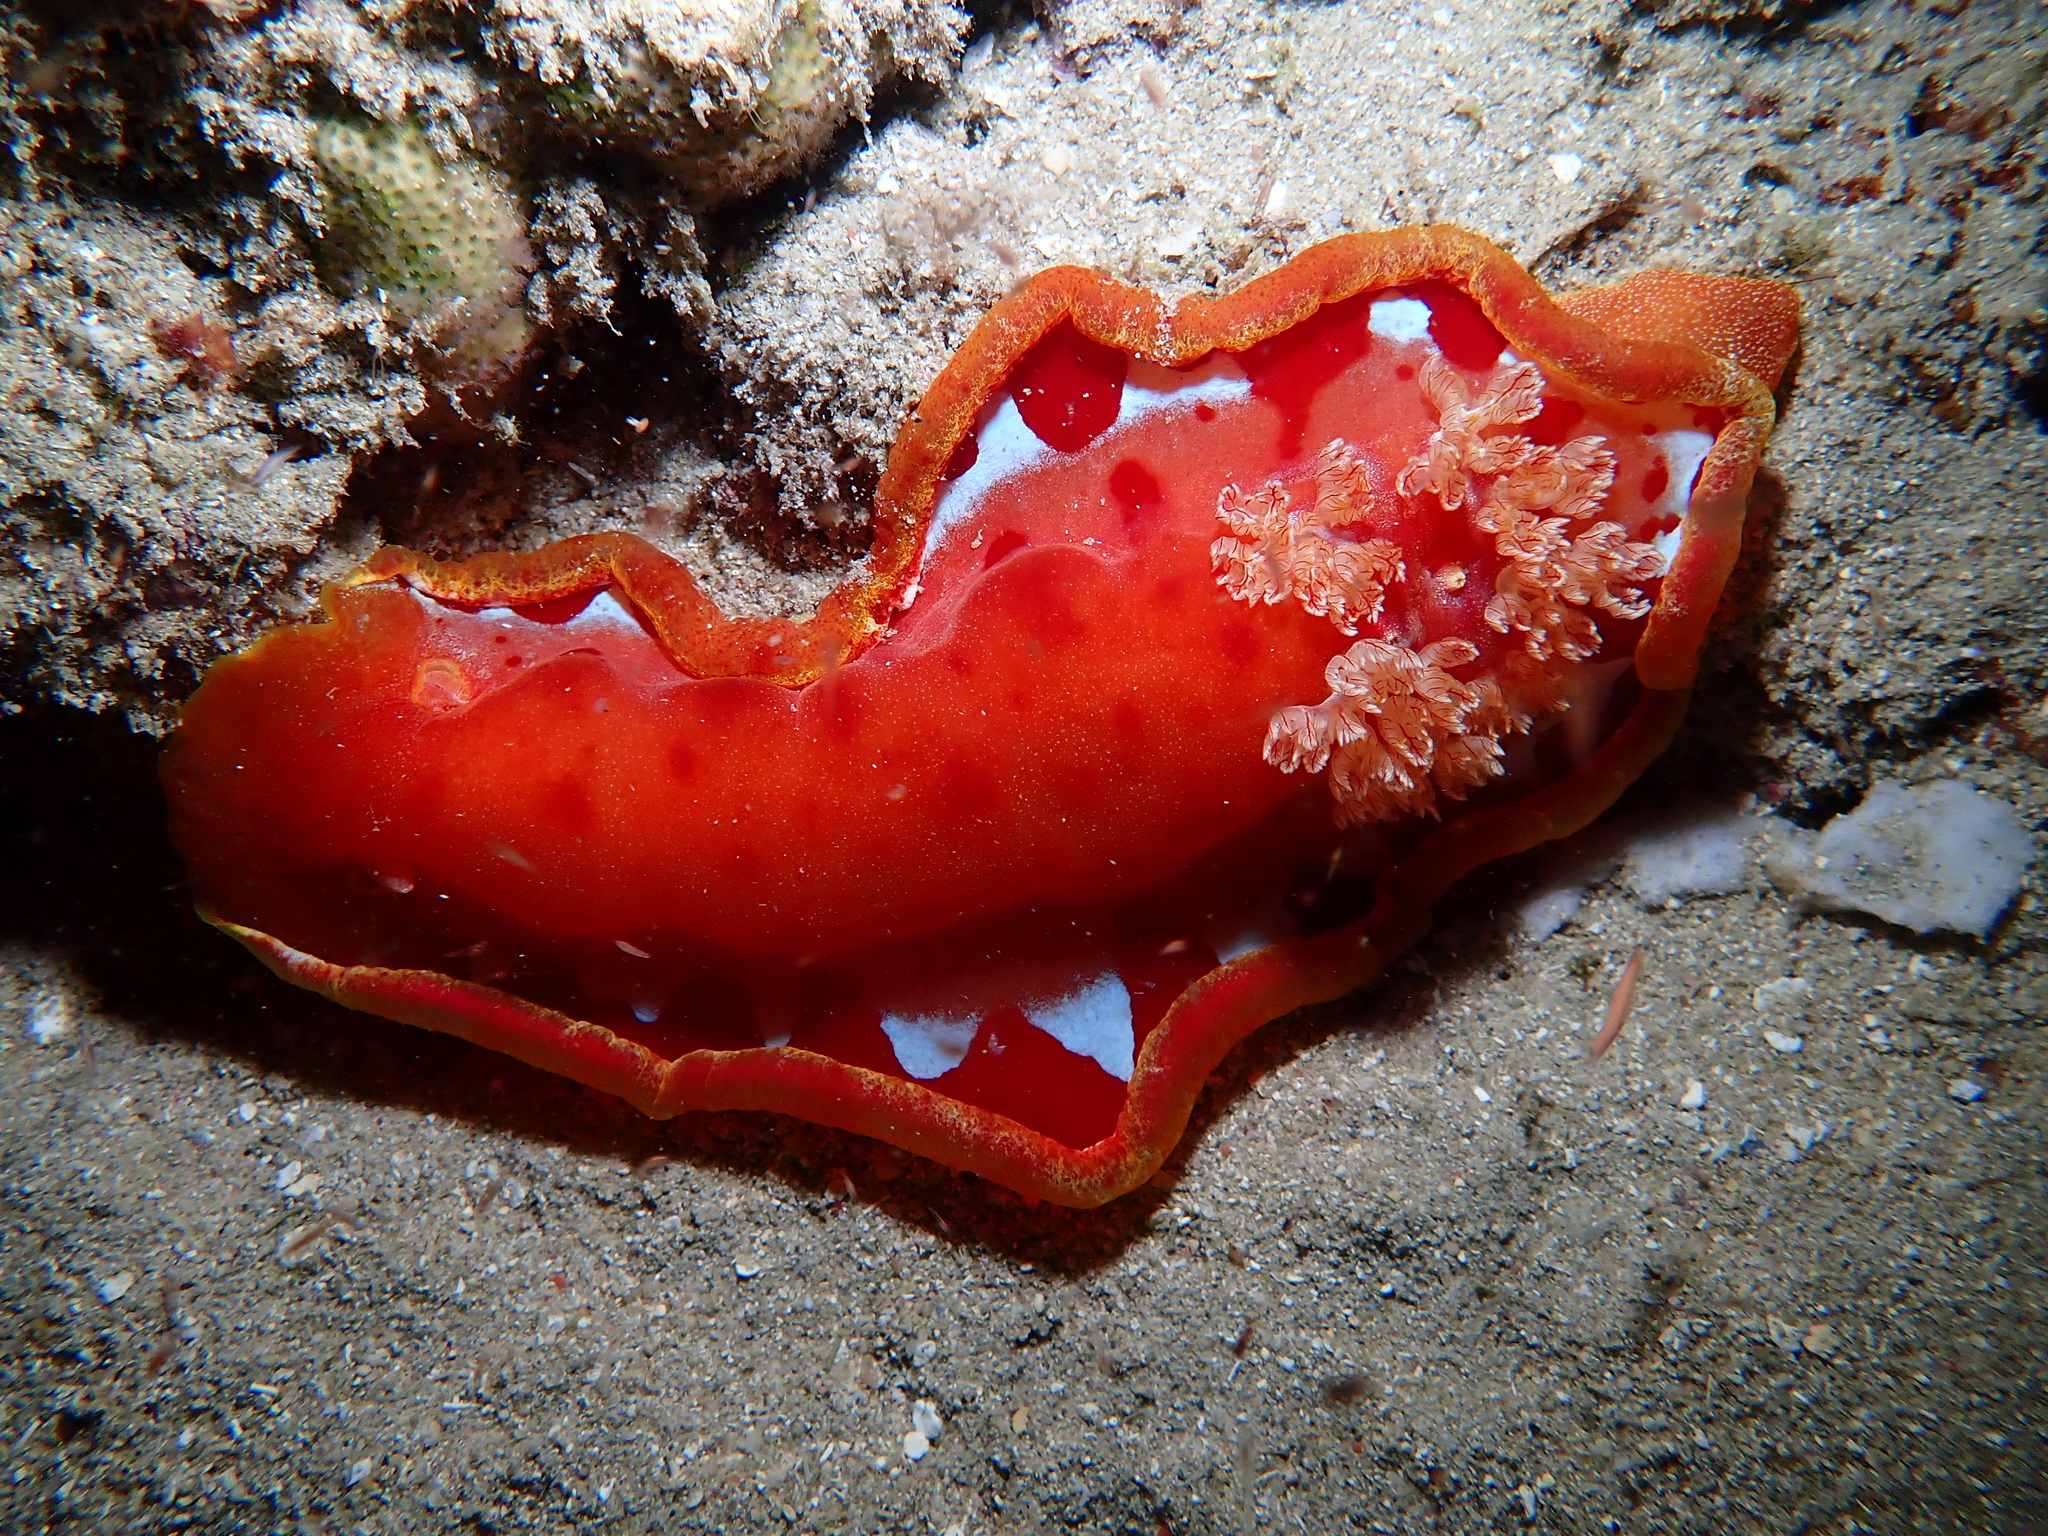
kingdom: Animalia
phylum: Mollusca
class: Gastropoda
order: Nudibranchia
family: Hexabranchidae
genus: Hexabranchus
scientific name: Hexabranchus lacer
